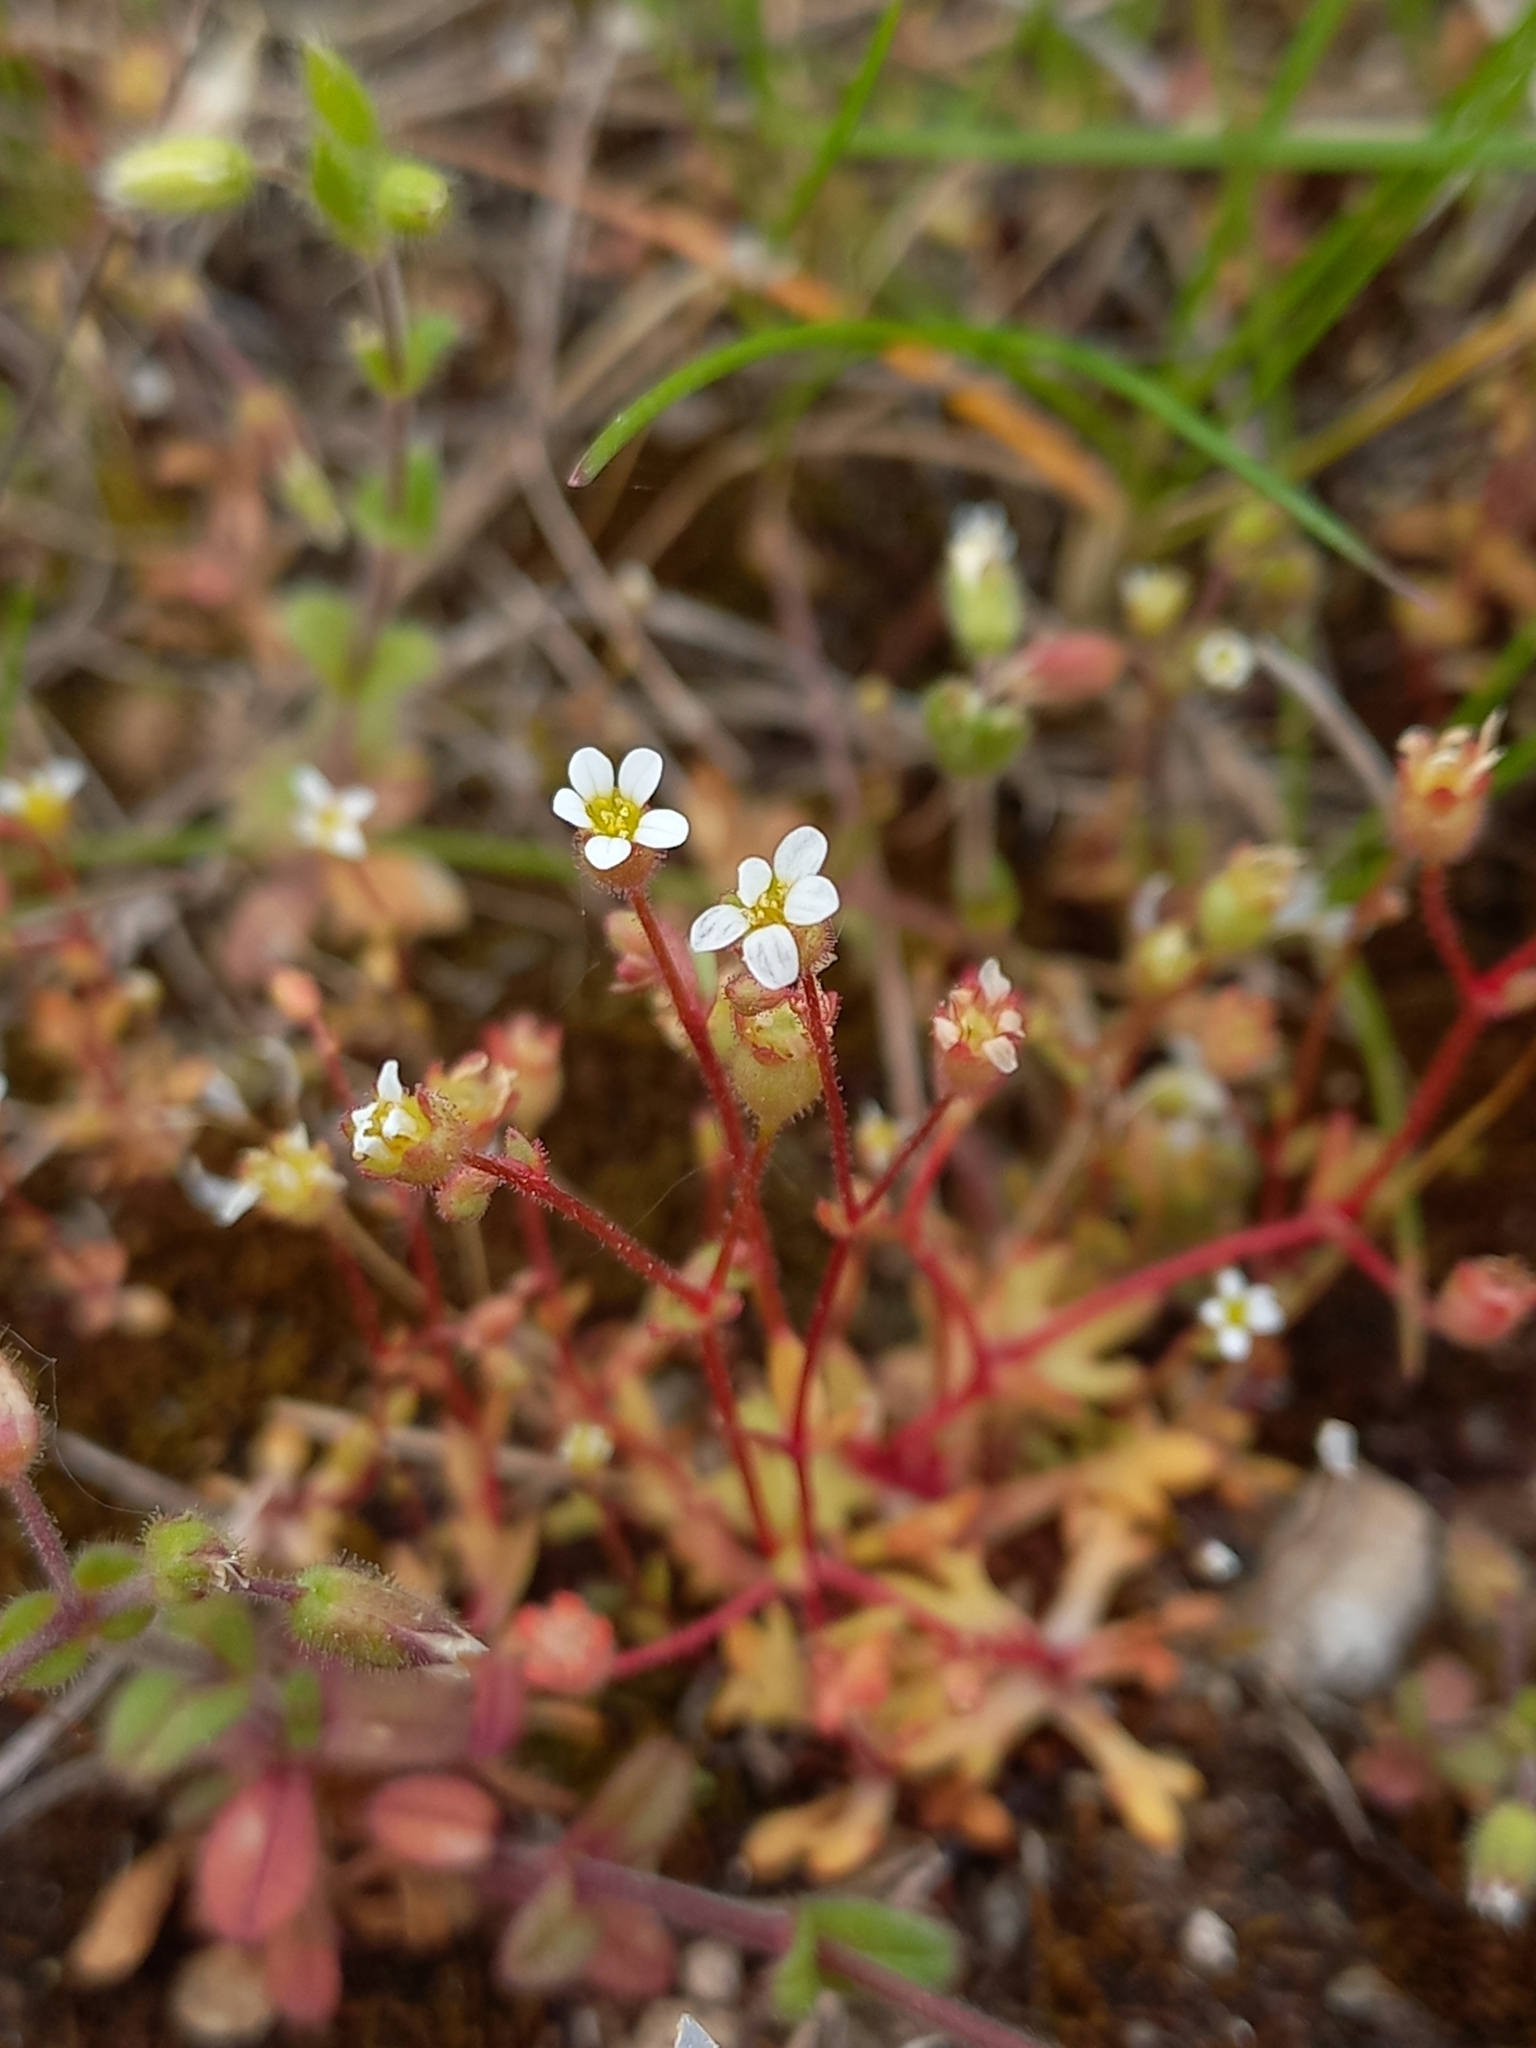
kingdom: Plantae
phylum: Tracheophyta
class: Magnoliopsida
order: Saxifragales
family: Saxifragaceae
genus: Saxifraga
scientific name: Saxifraga tridactylites
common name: Rue-leaved saxifrage
